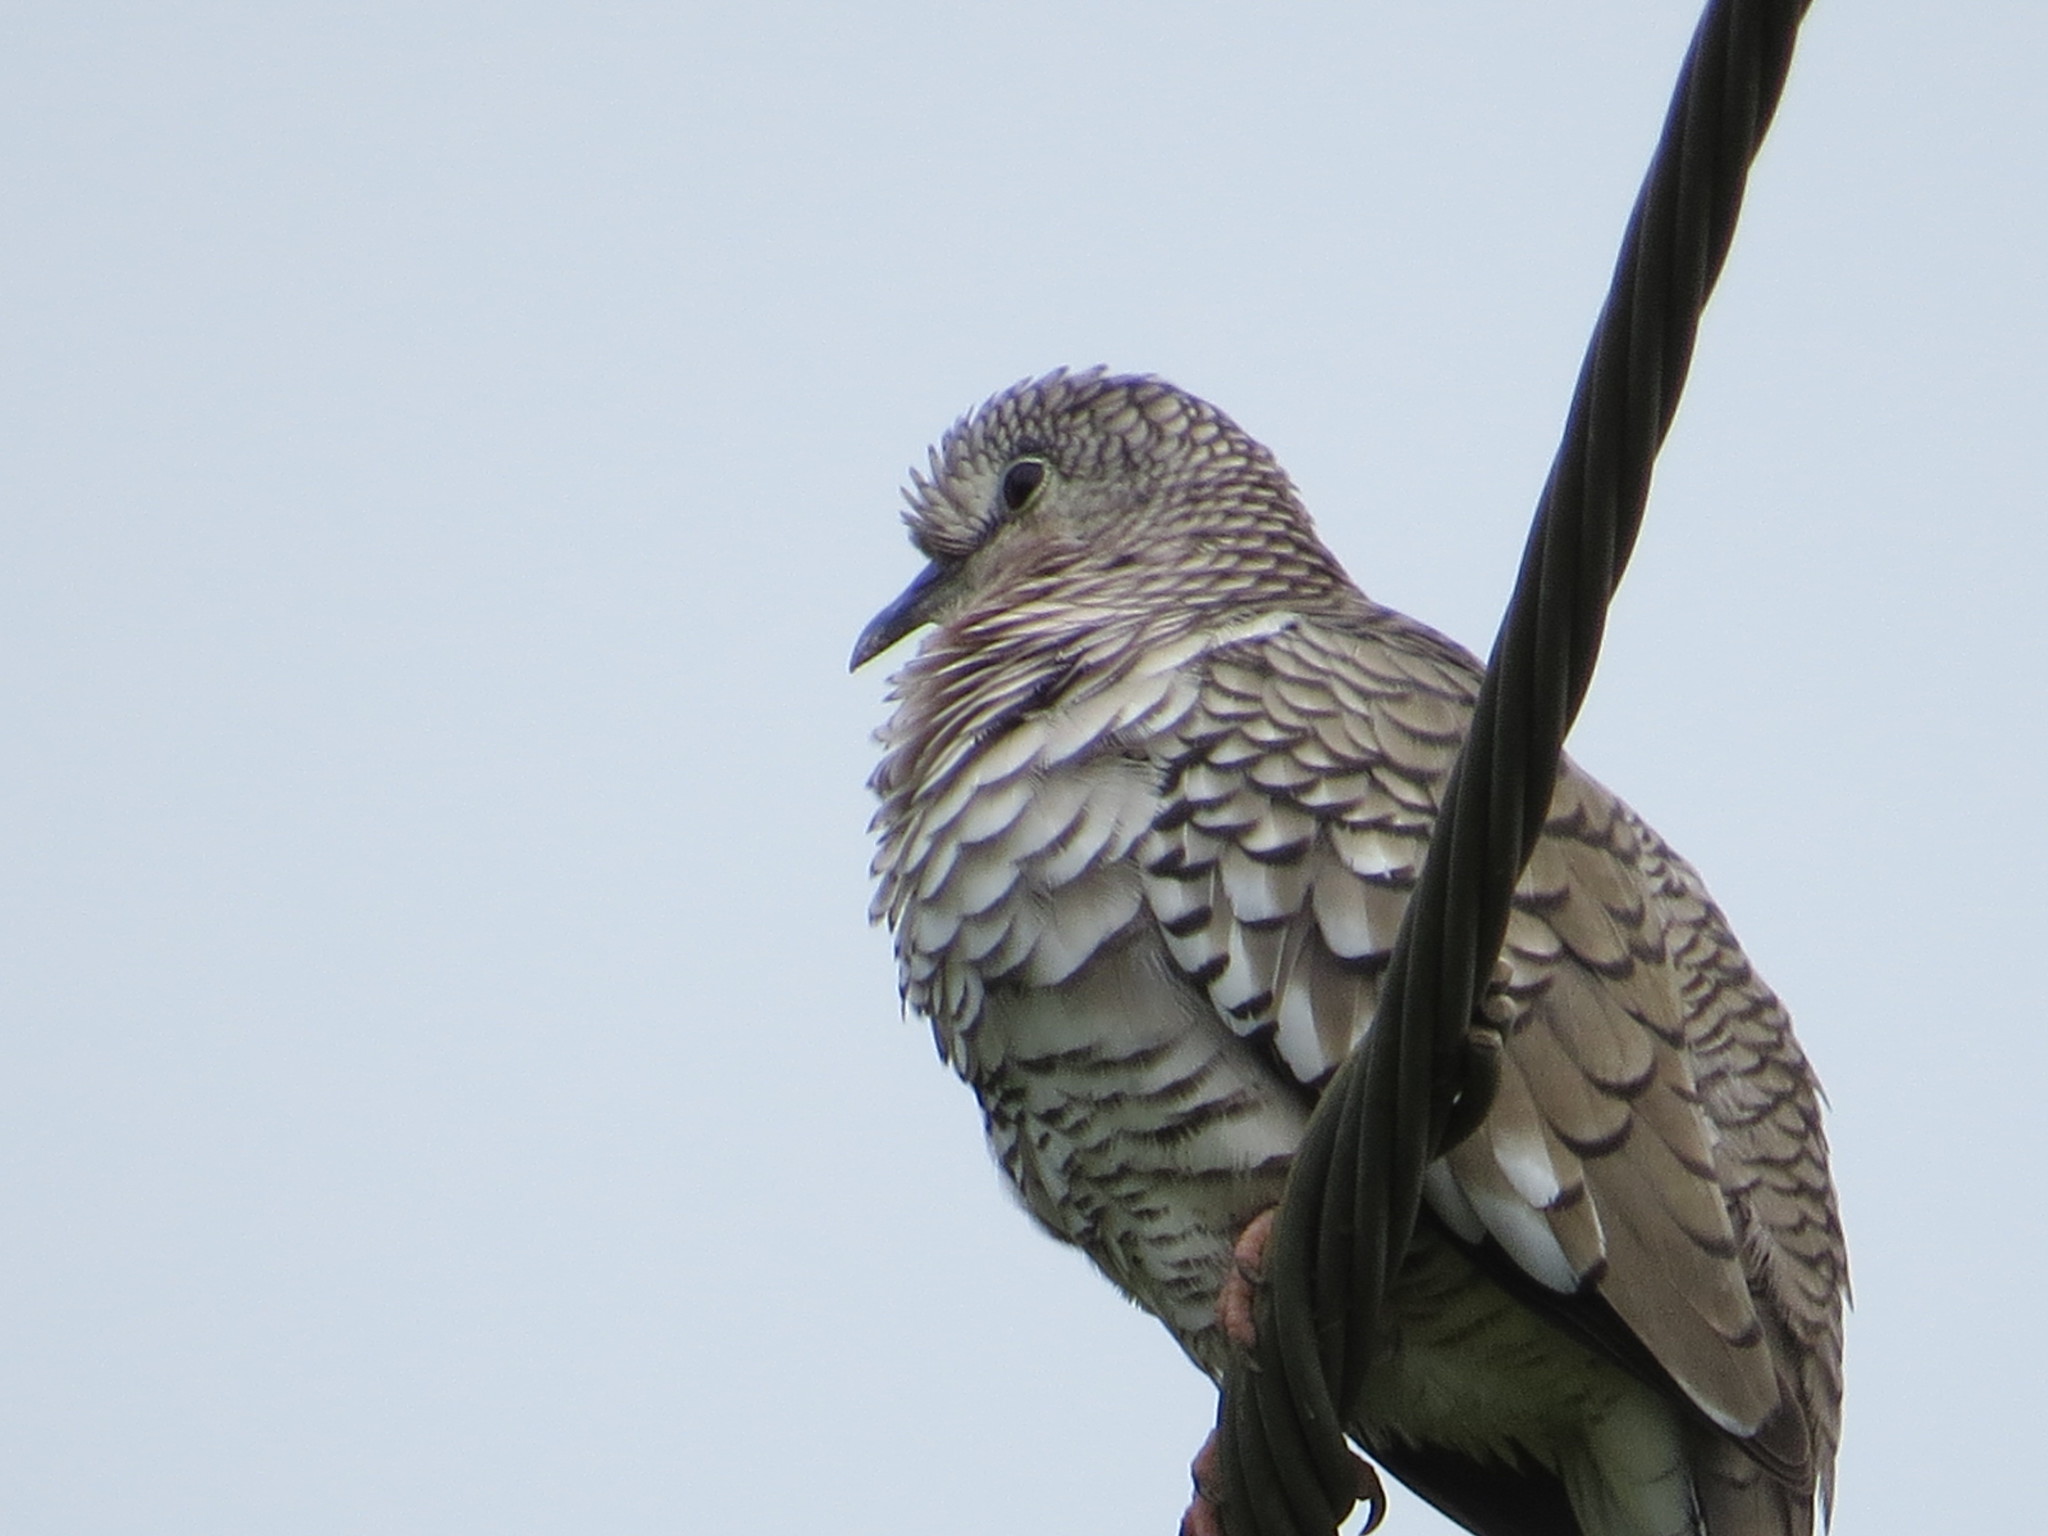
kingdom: Animalia
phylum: Chordata
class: Aves
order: Columbiformes
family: Columbidae
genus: Columbina
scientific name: Columbina squammata
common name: Scaled dove
